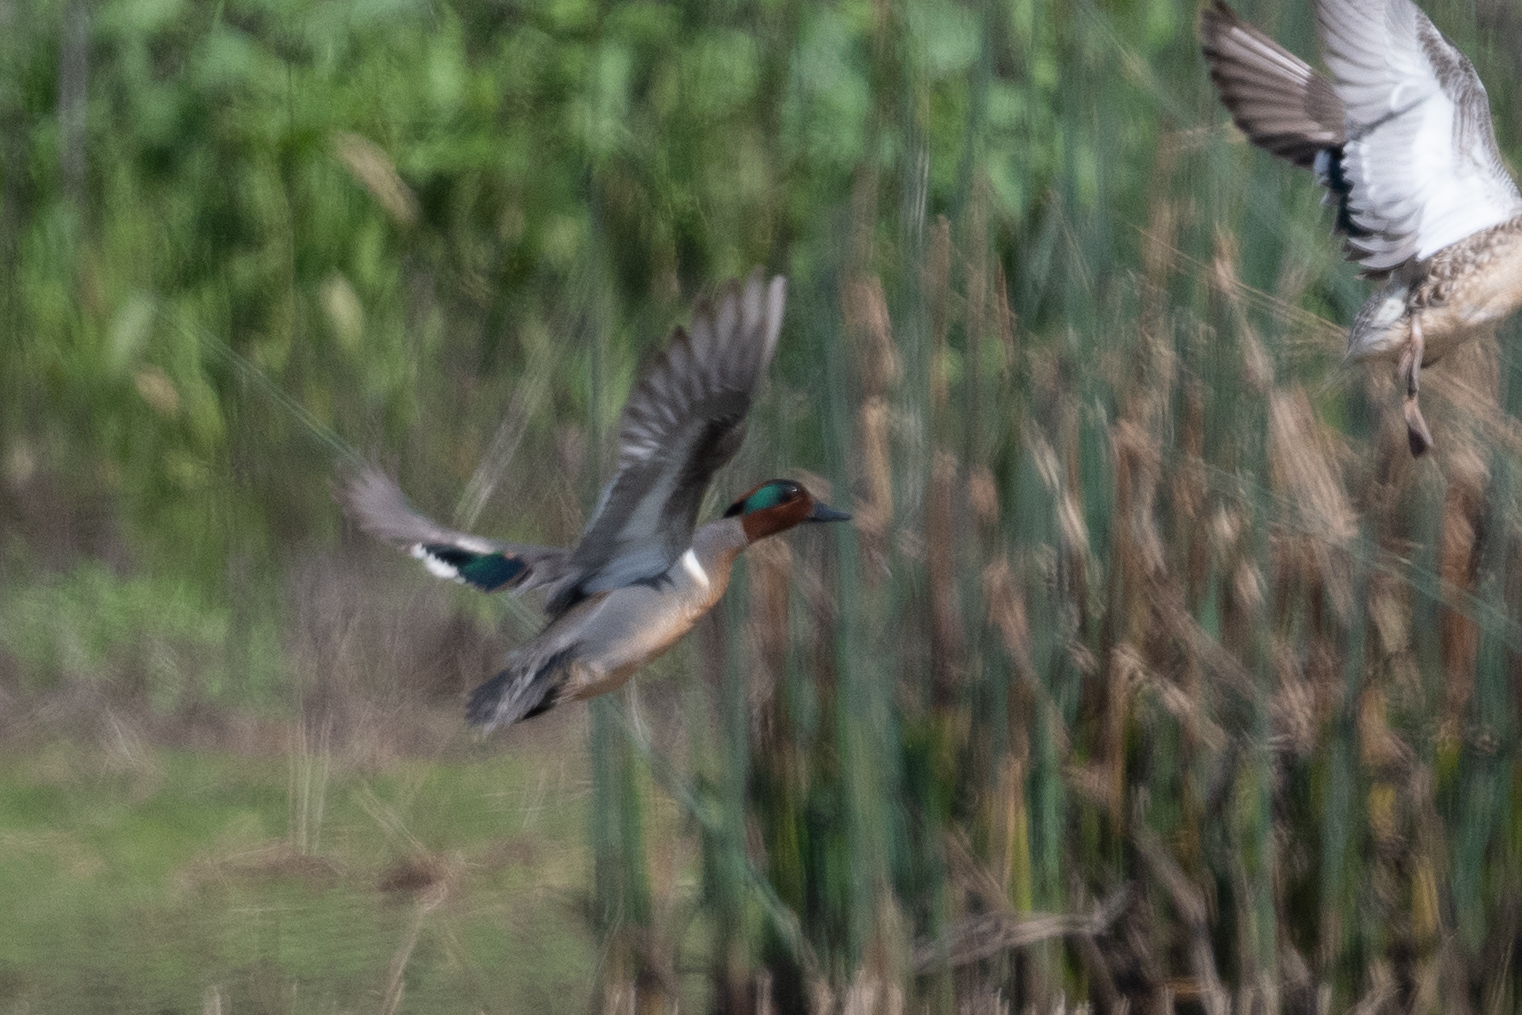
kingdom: Animalia
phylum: Chordata
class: Aves
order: Anseriformes
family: Anatidae
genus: Anas
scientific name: Anas crecca
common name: Eurasian teal
